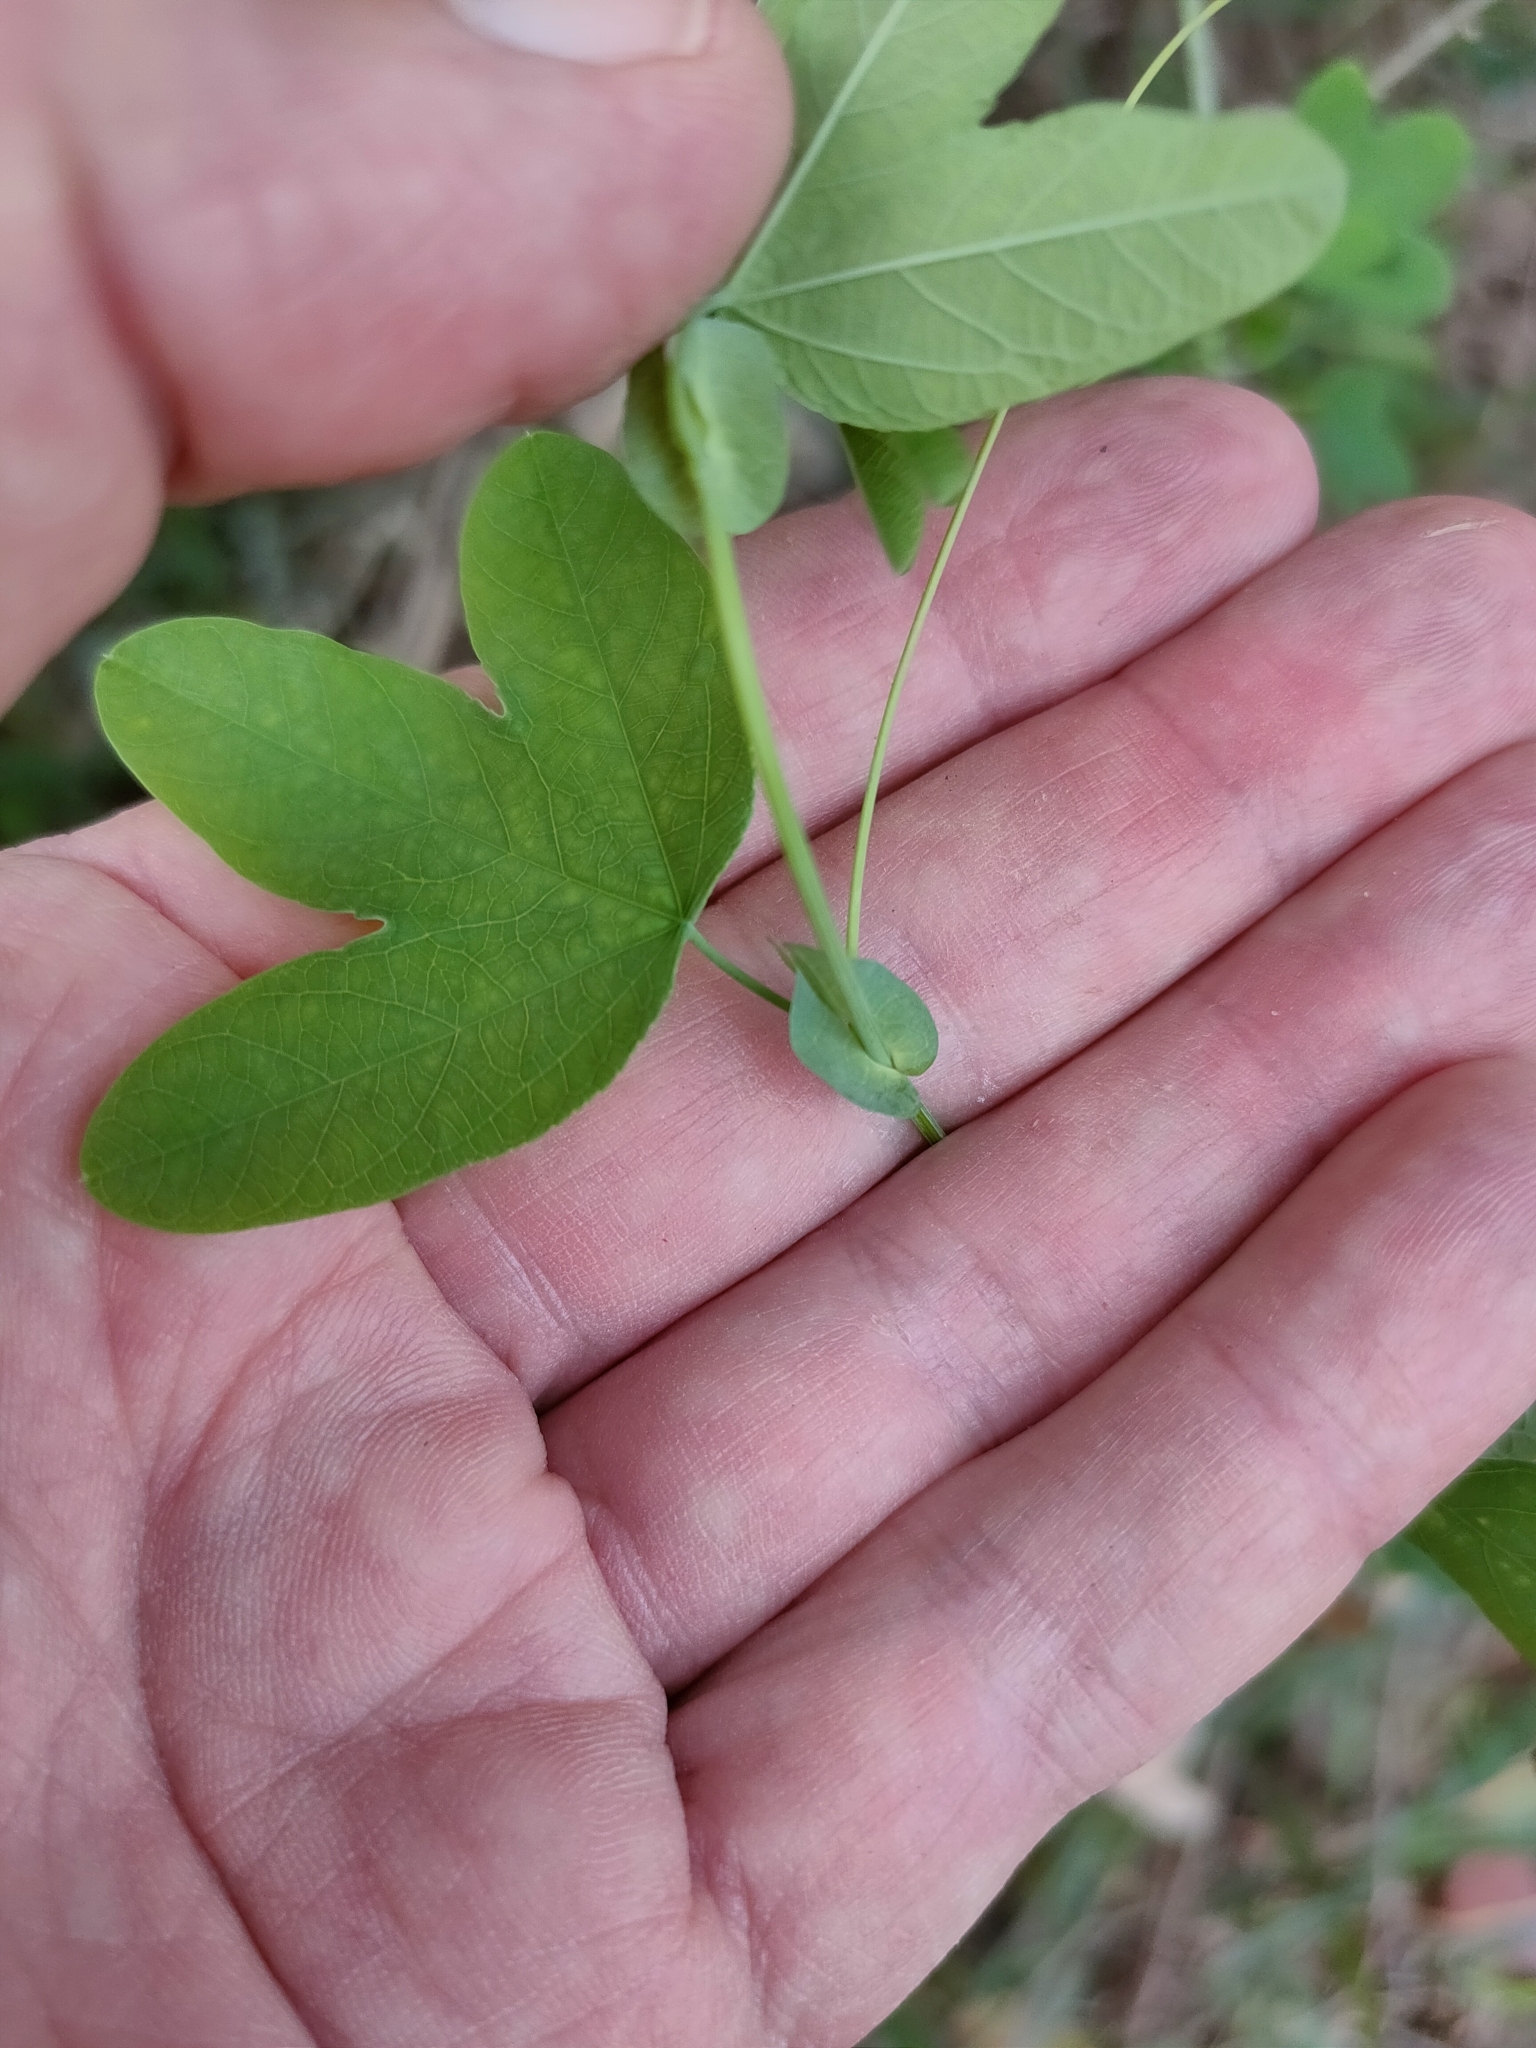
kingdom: Plantae
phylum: Tracheophyta
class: Magnoliopsida
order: Malpighiales
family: Passifloraceae
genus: Passiflora
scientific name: Passiflora subpeltata
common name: White passionflower
